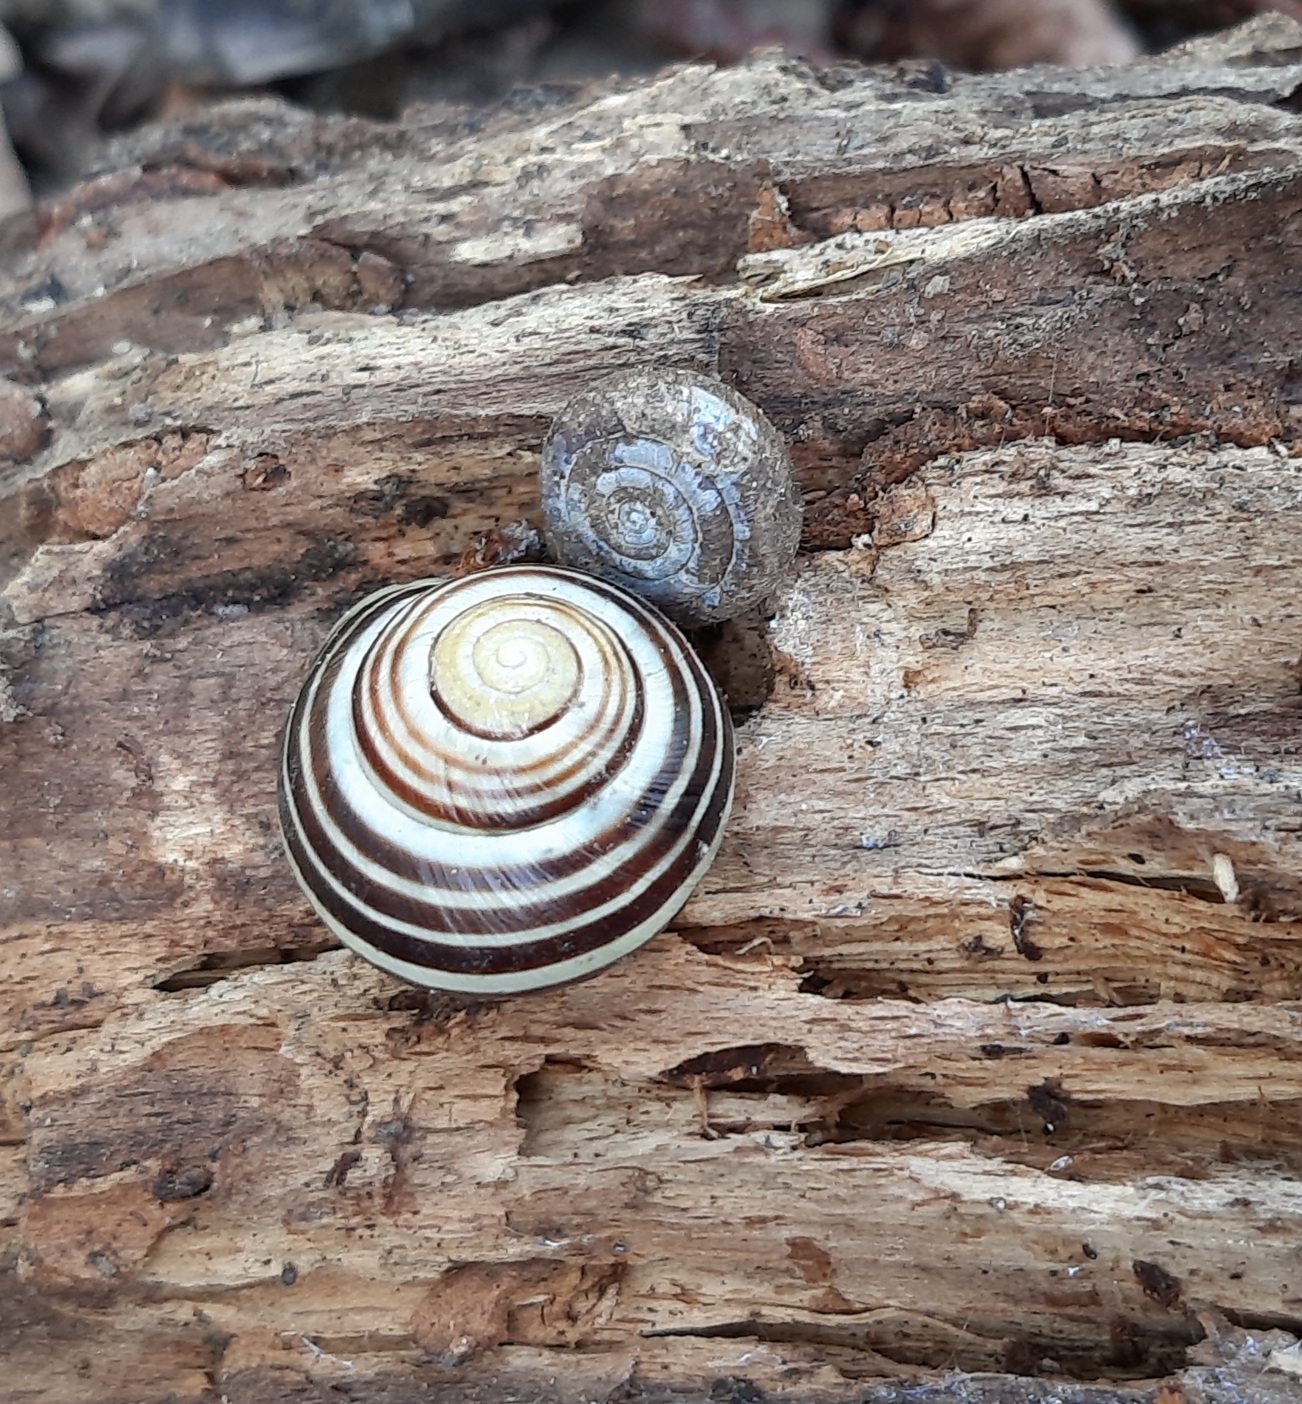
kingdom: Animalia
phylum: Mollusca
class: Gastropoda
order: Stylommatophora
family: Helicidae
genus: Cepaea
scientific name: Cepaea hortensis
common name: White-lip gardensnail
